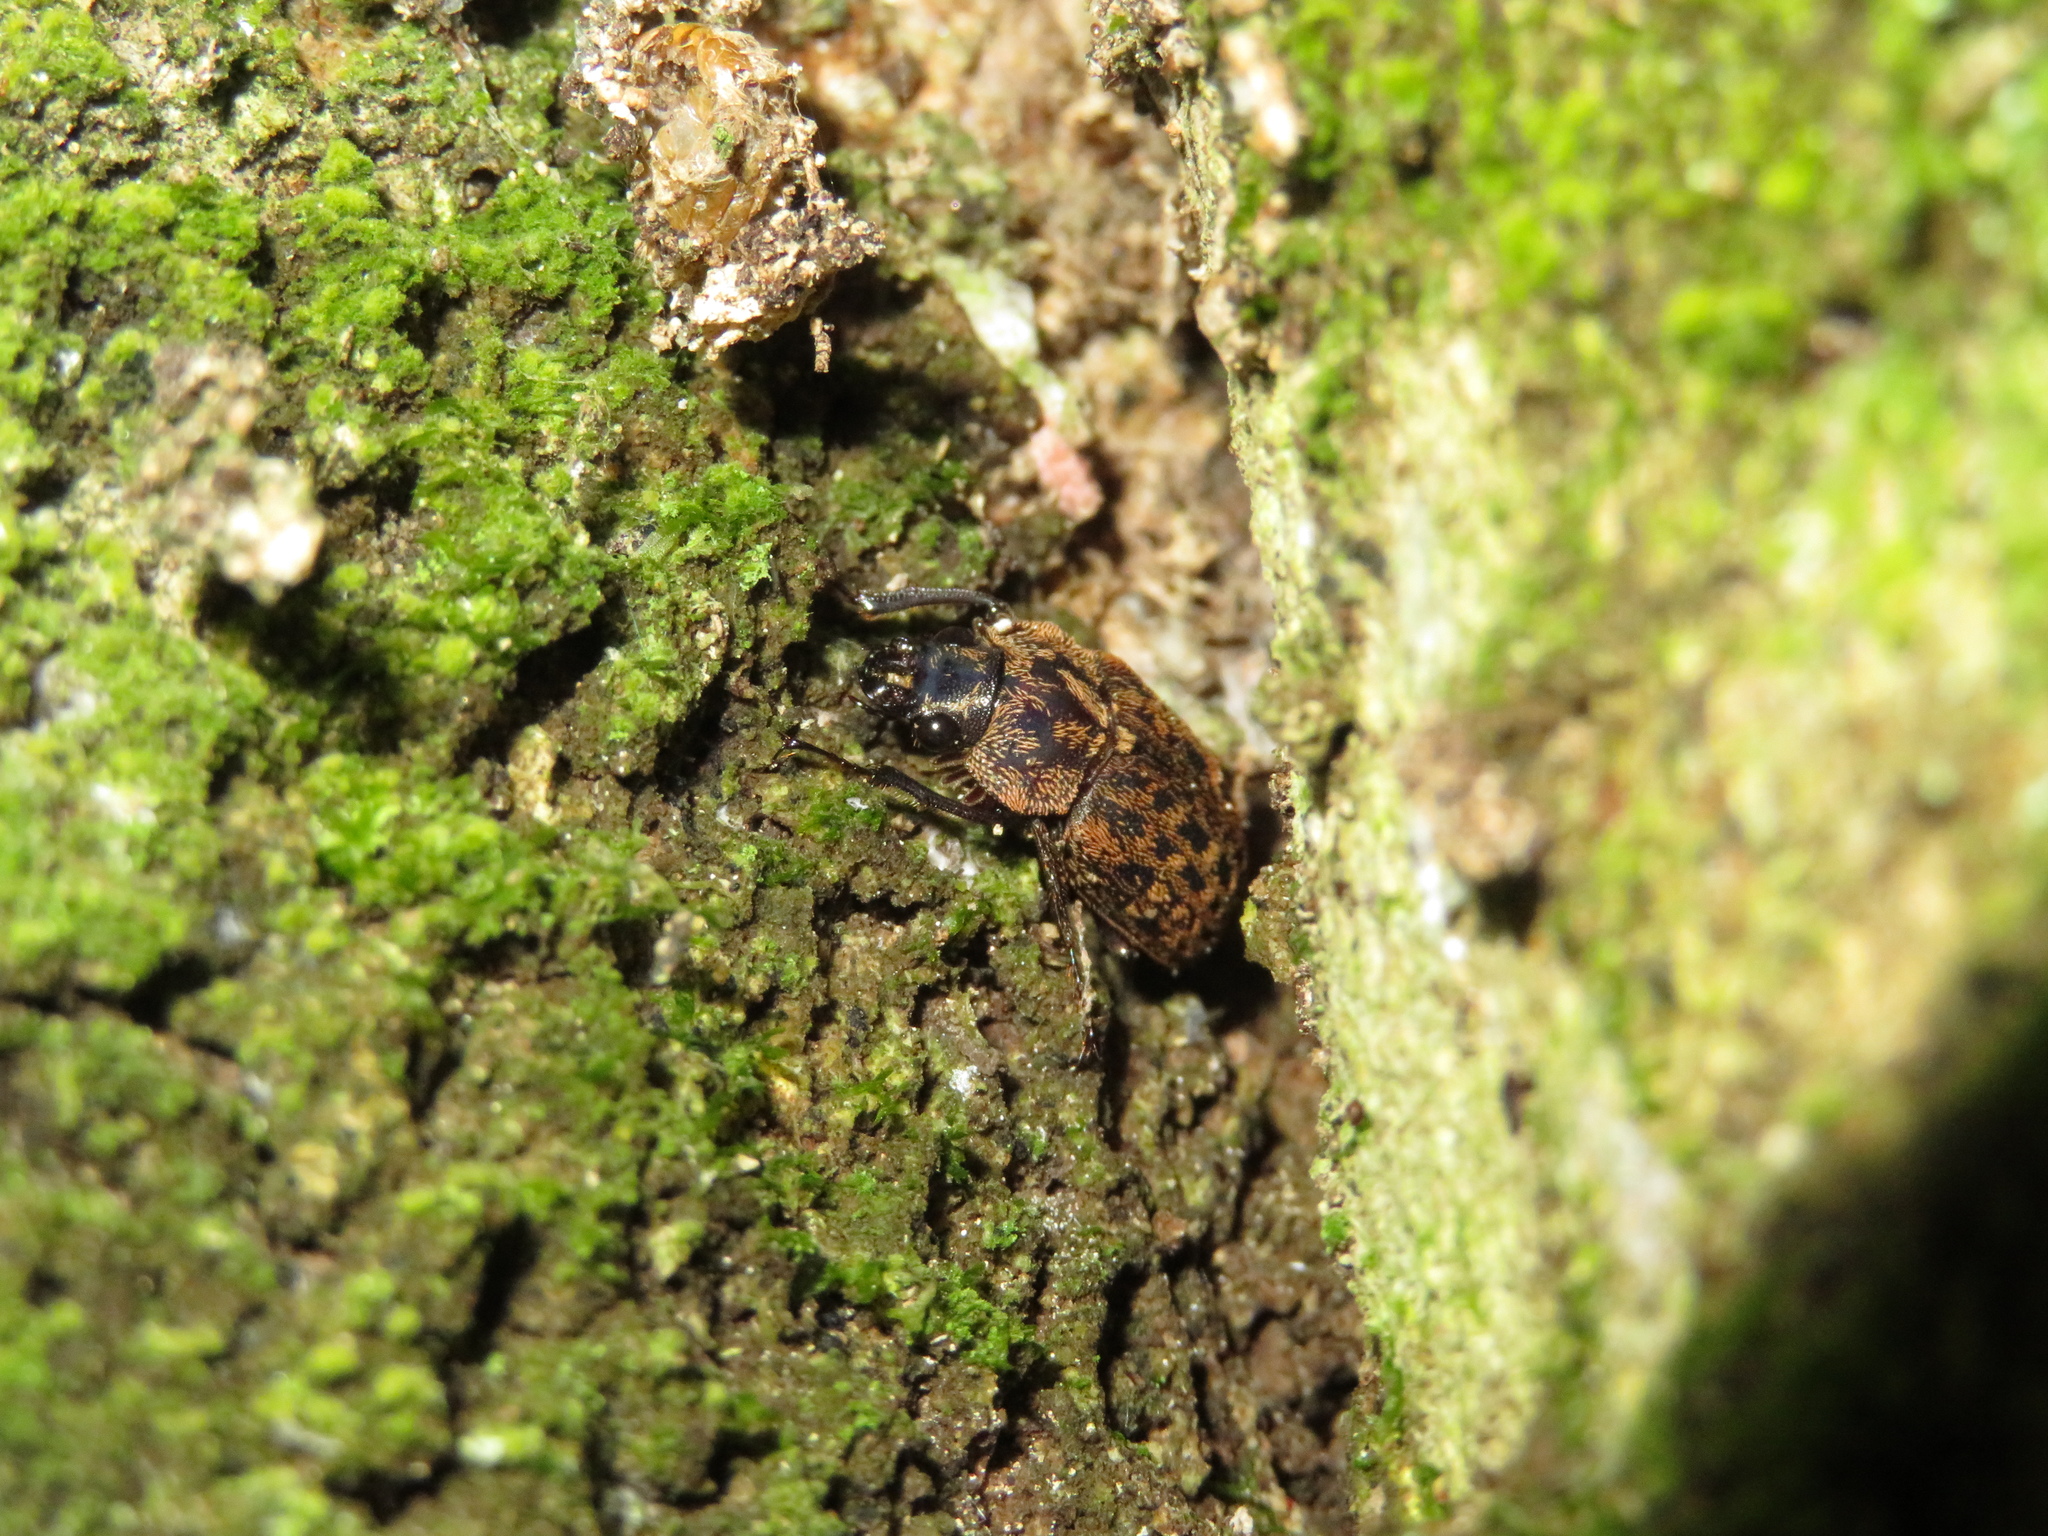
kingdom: Animalia
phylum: Arthropoda
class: Insecta
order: Coleoptera
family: Lucanidae
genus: Mitophyllus
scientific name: Mitophyllus parrianus
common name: Parry's stag beetle
